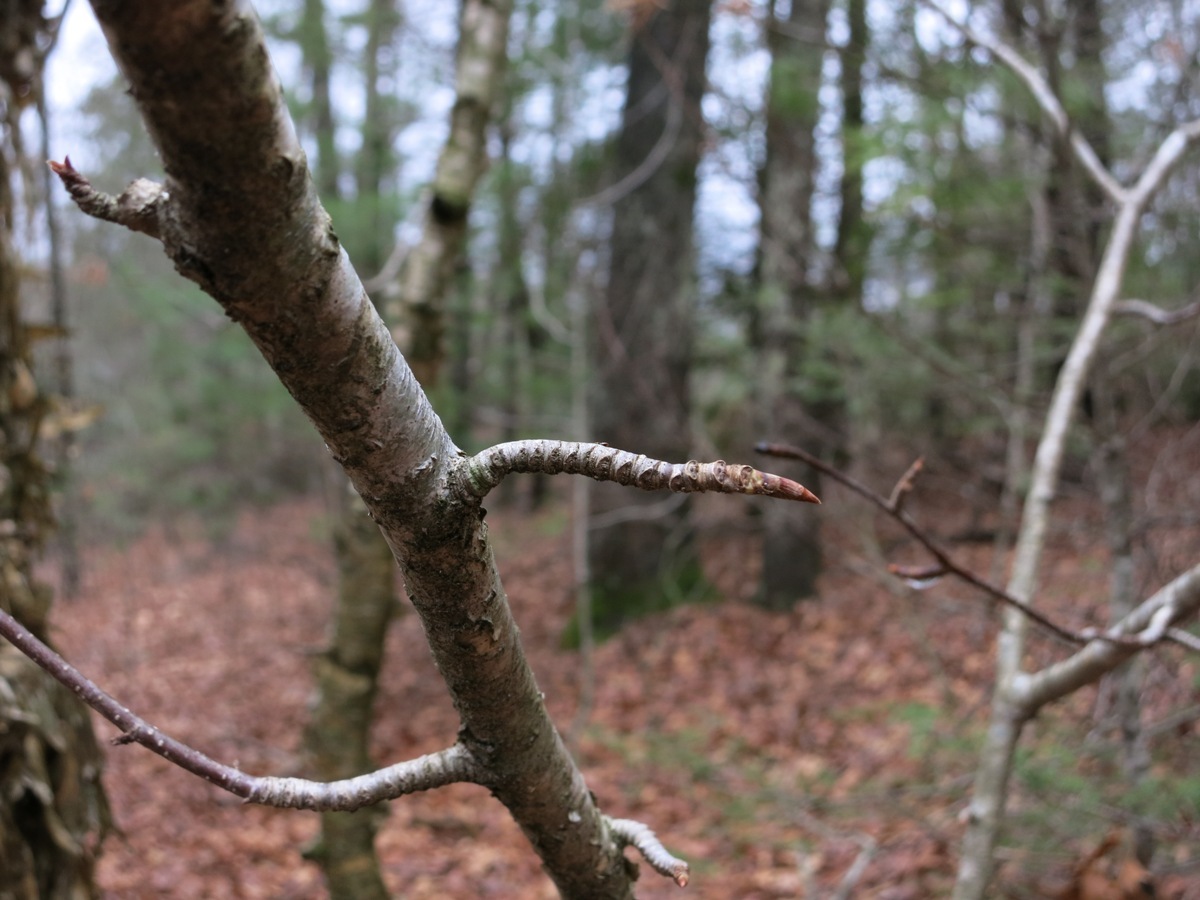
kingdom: Plantae
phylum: Tracheophyta
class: Magnoliopsida
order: Fagales
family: Betulaceae
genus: Betula
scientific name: Betula alleghaniensis
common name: Yellow birch
